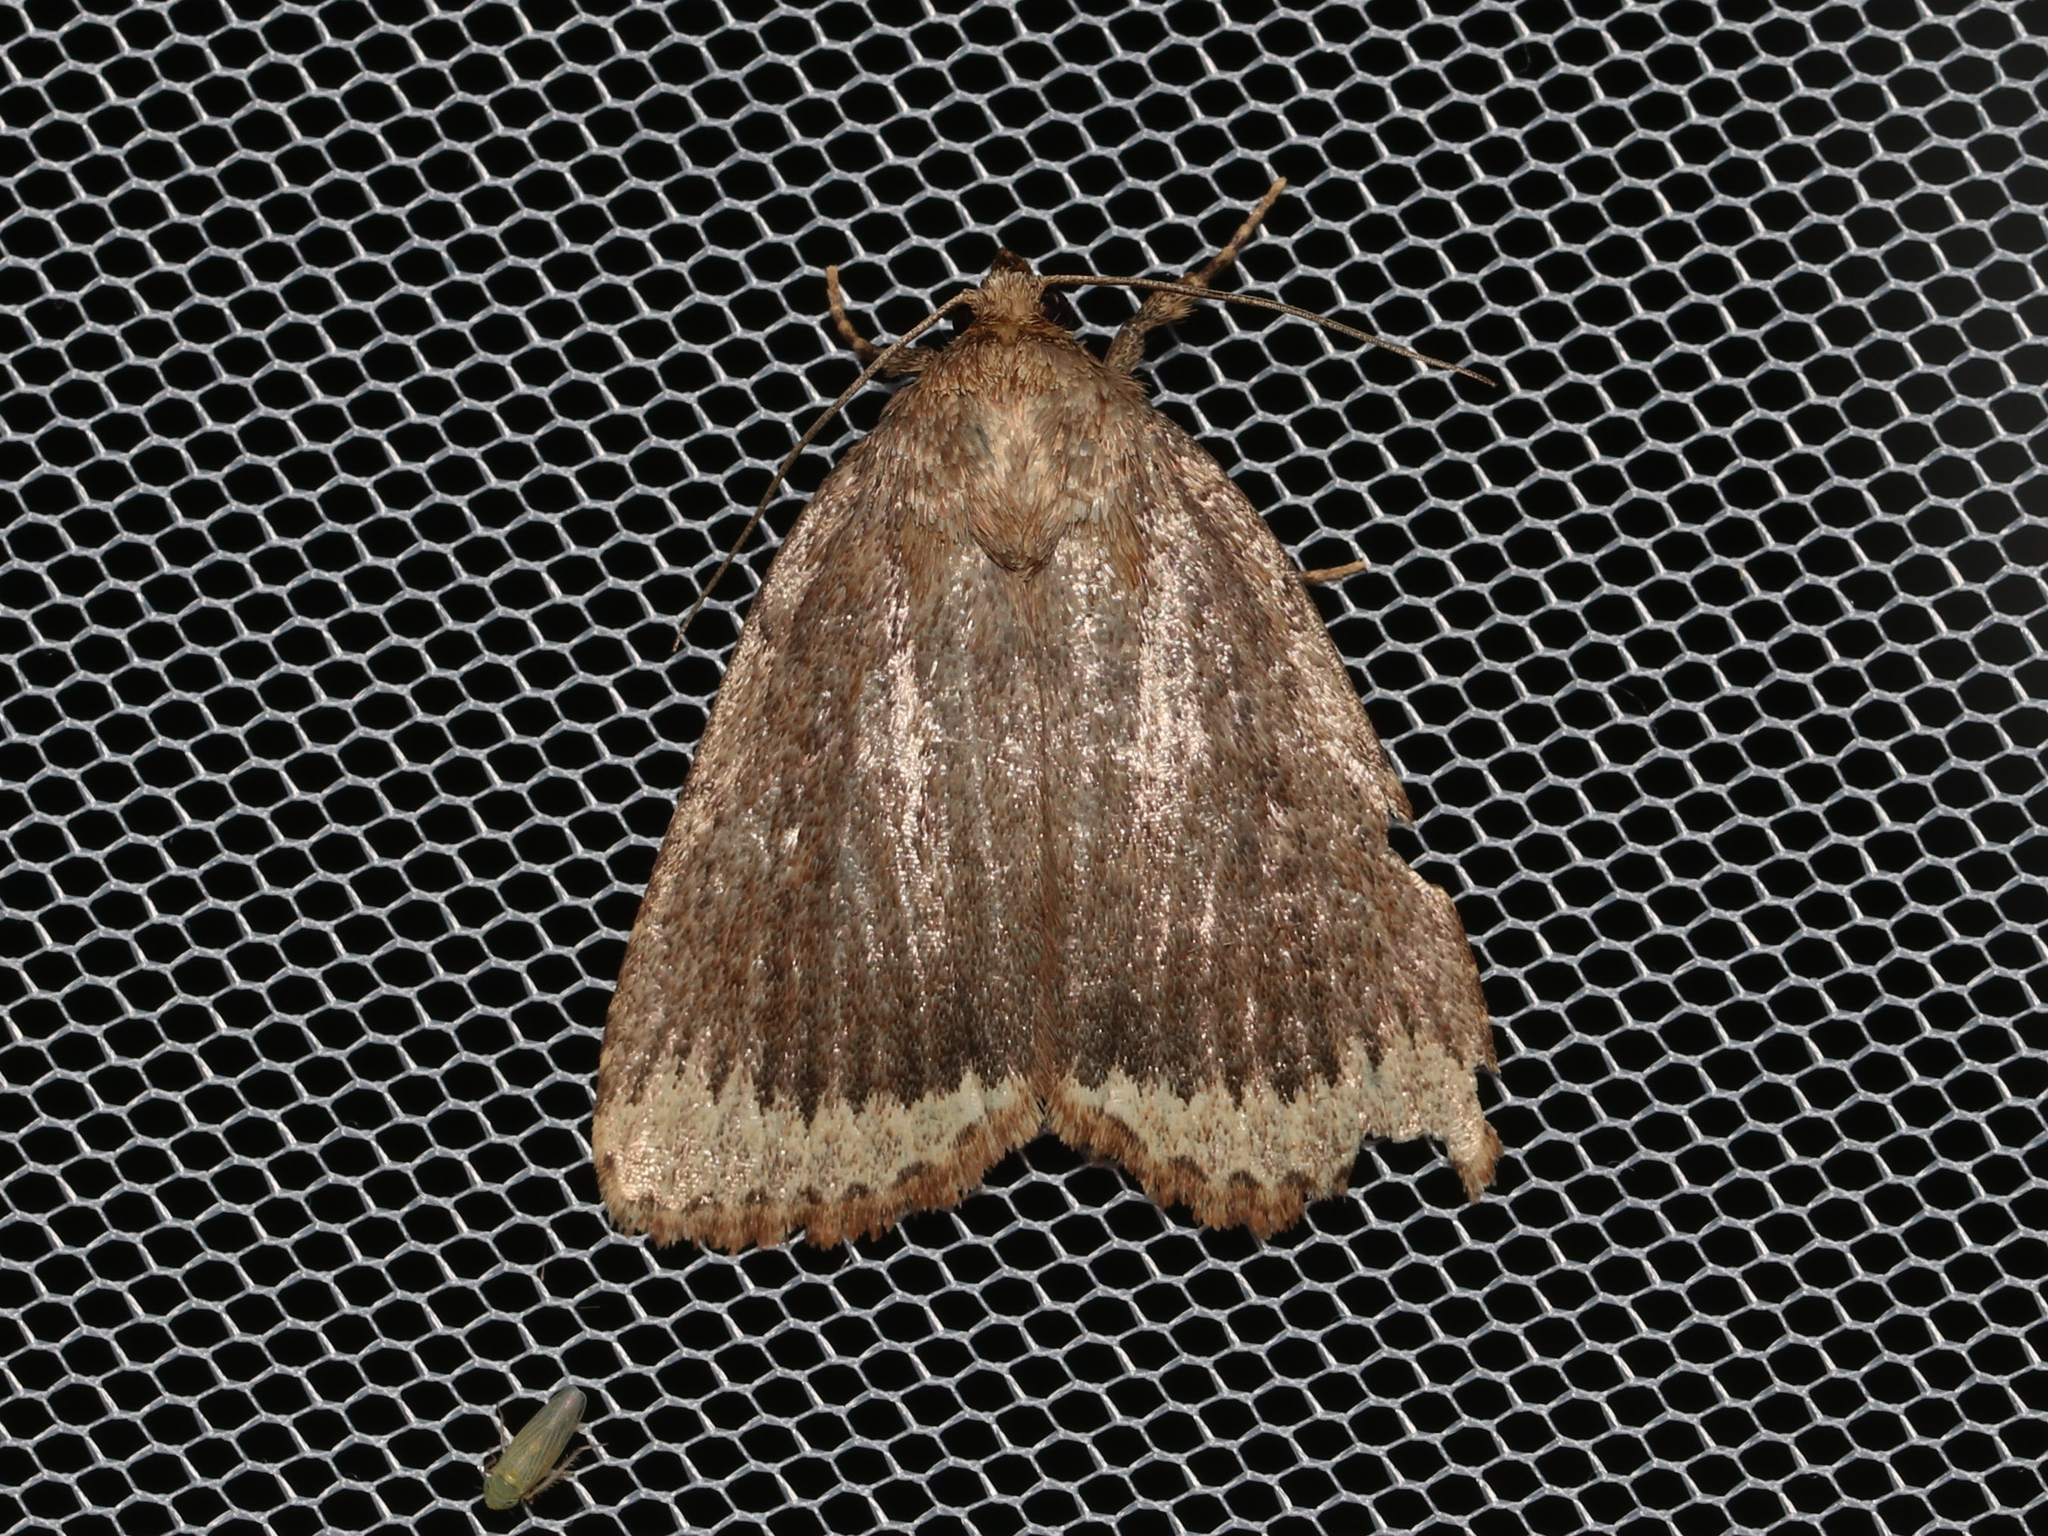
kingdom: Animalia
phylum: Arthropoda
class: Insecta
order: Lepidoptera
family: Noctuidae
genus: Amphipyra
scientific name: Amphipyra glabella
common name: Smooth amphipyra moth
